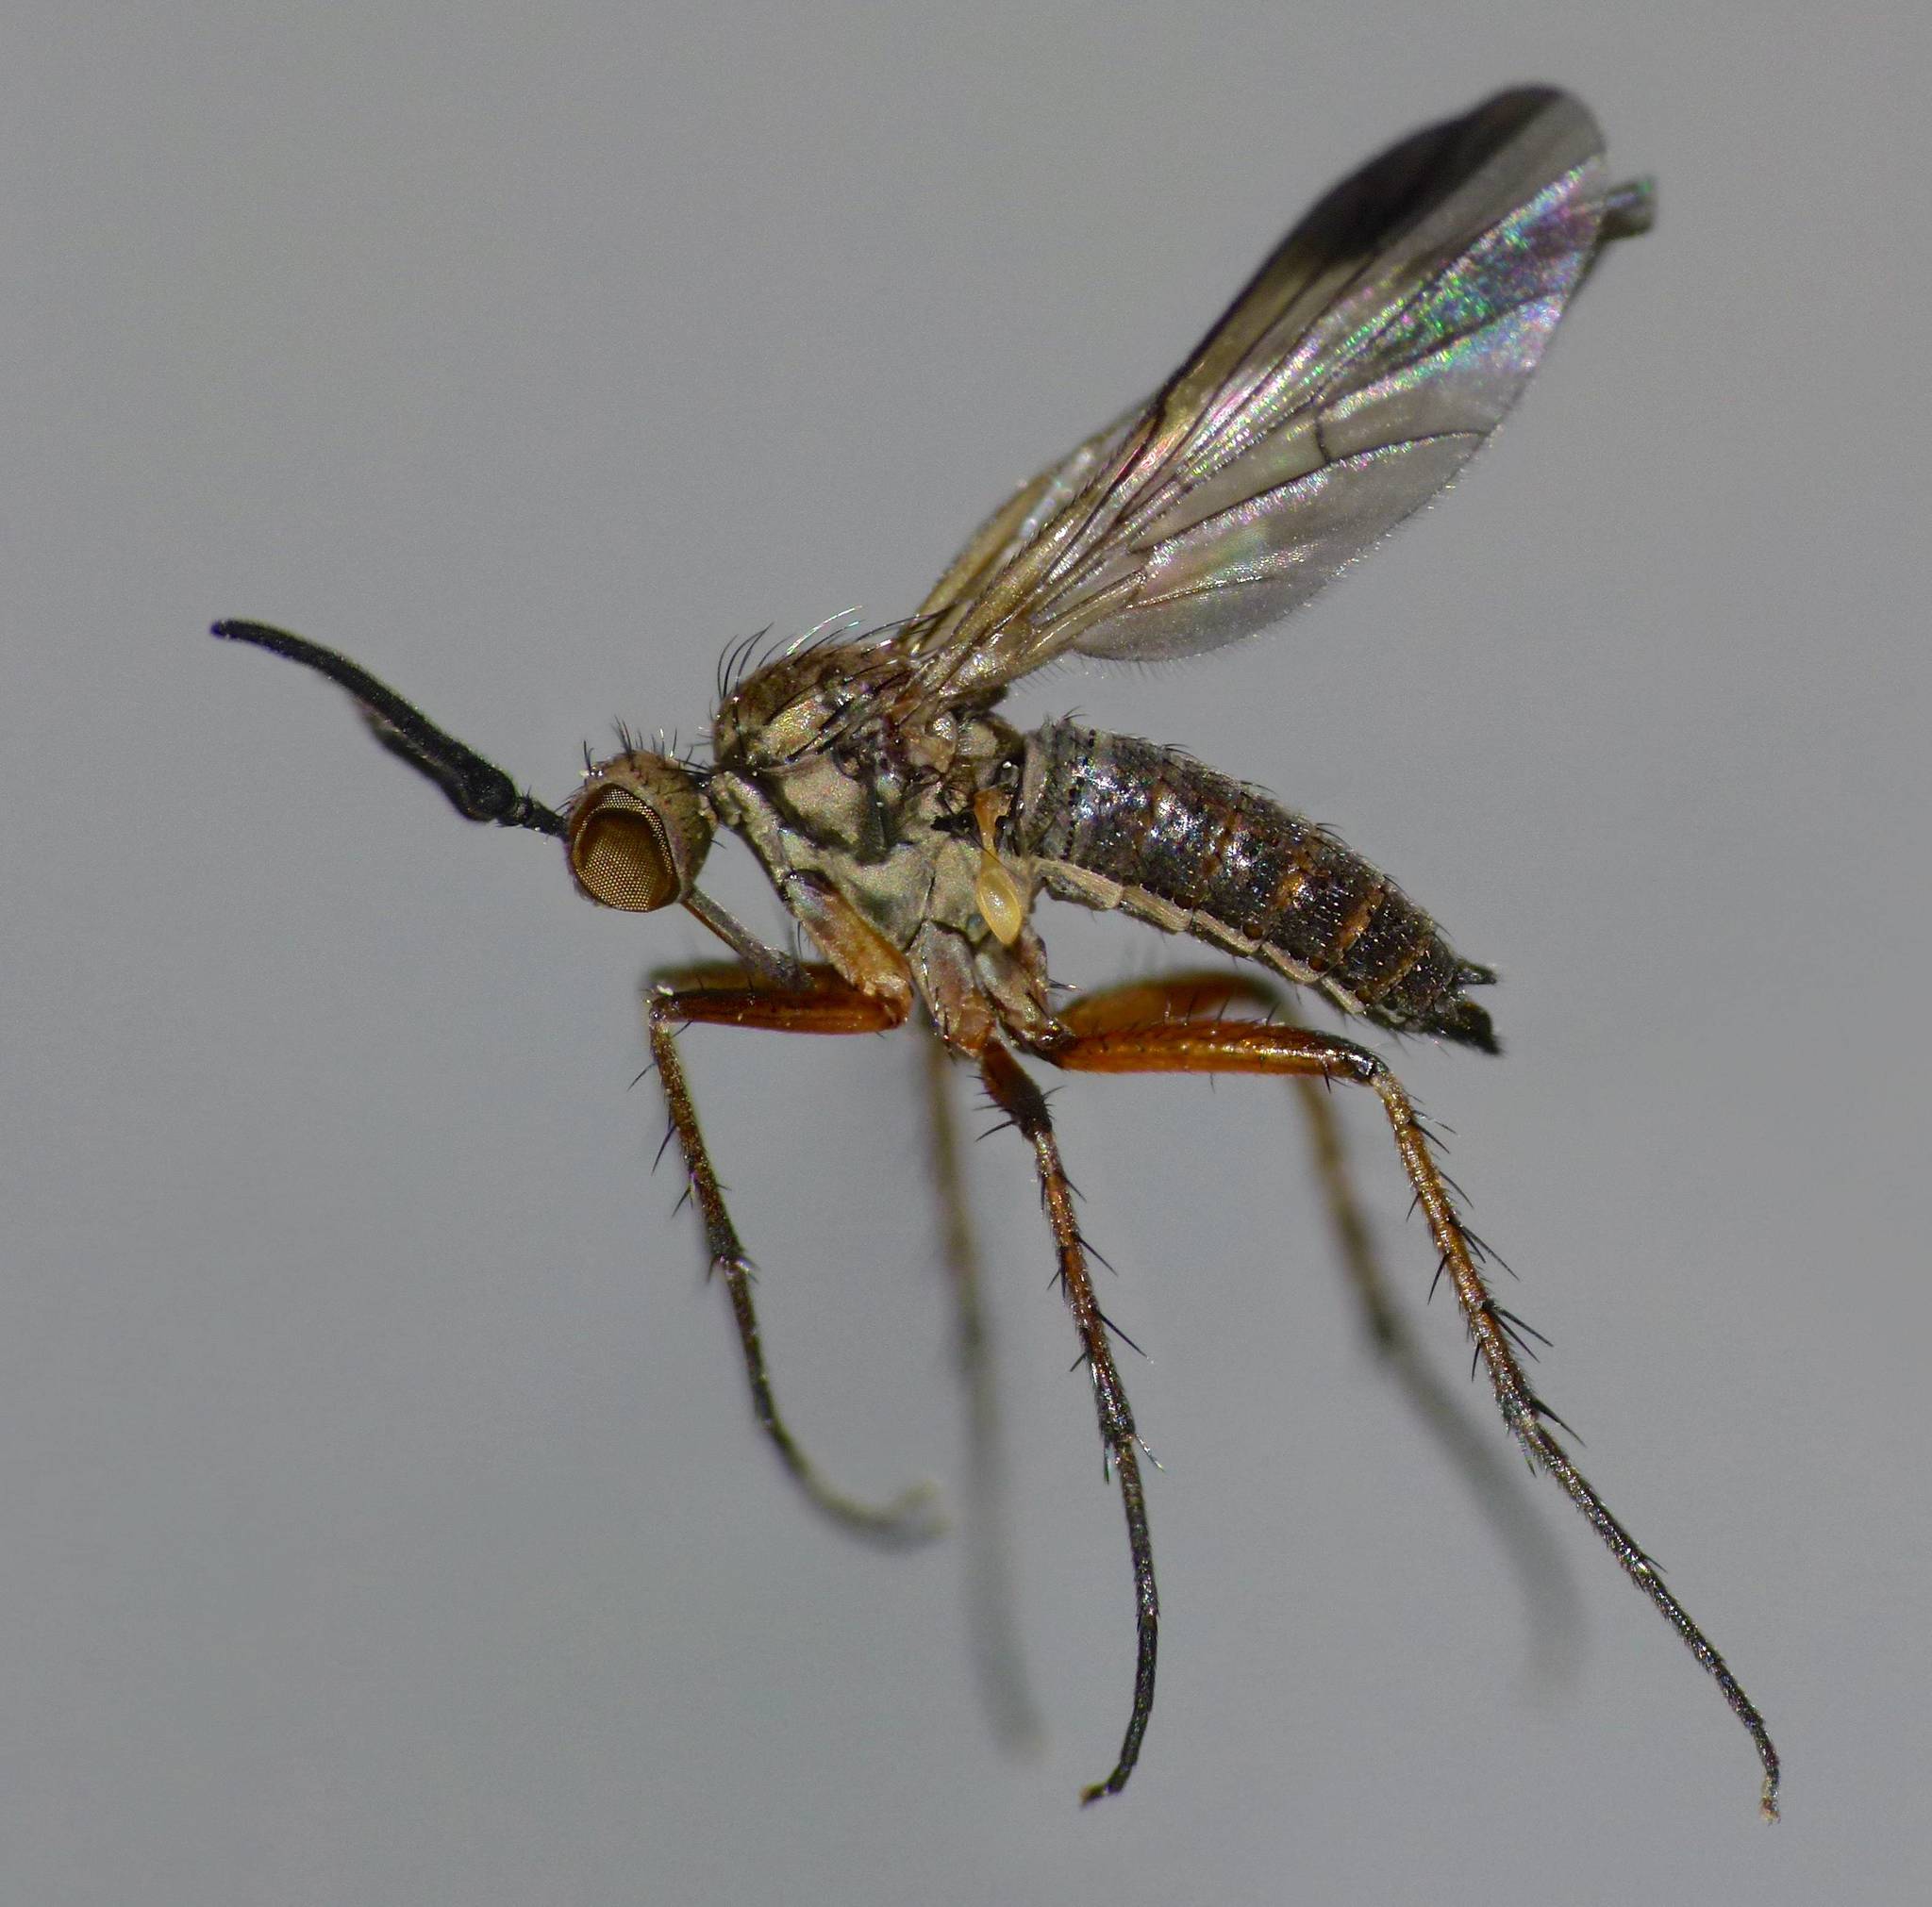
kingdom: Animalia
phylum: Arthropoda
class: Insecta
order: Diptera
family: Empididae
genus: Empidadelpha
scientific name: Empidadelpha pokekeao
